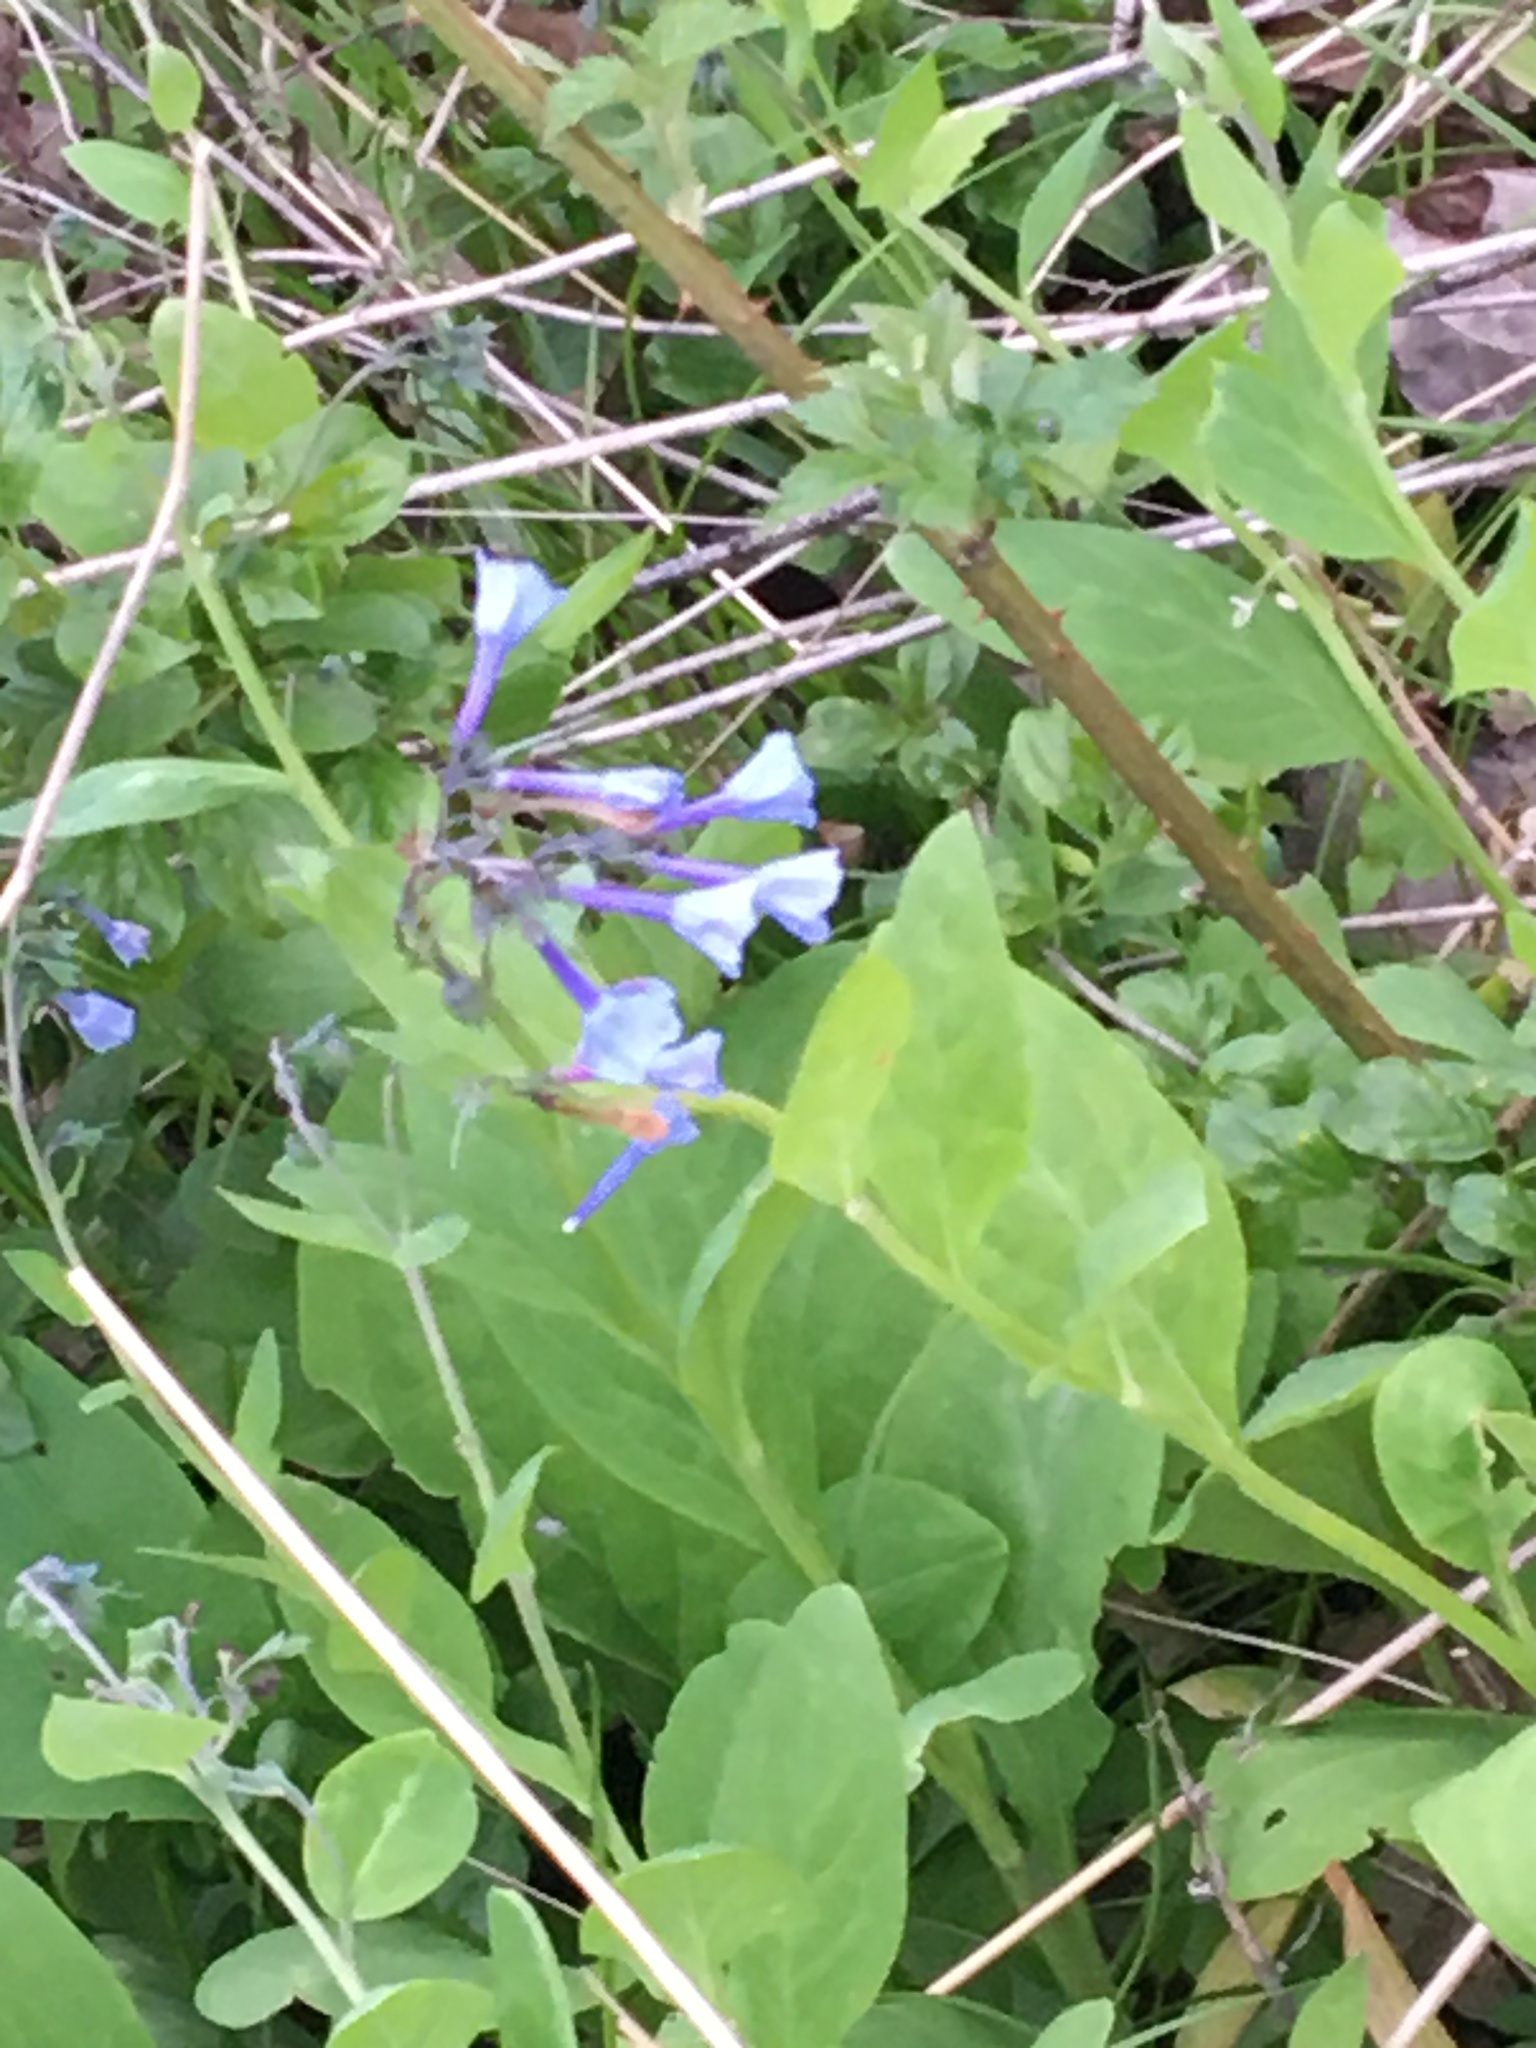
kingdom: Plantae
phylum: Tracheophyta
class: Magnoliopsida
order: Boraginales
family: Boraginaceae
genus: Mertensia
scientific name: Mertensia virginica
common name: Virginia bluebells
